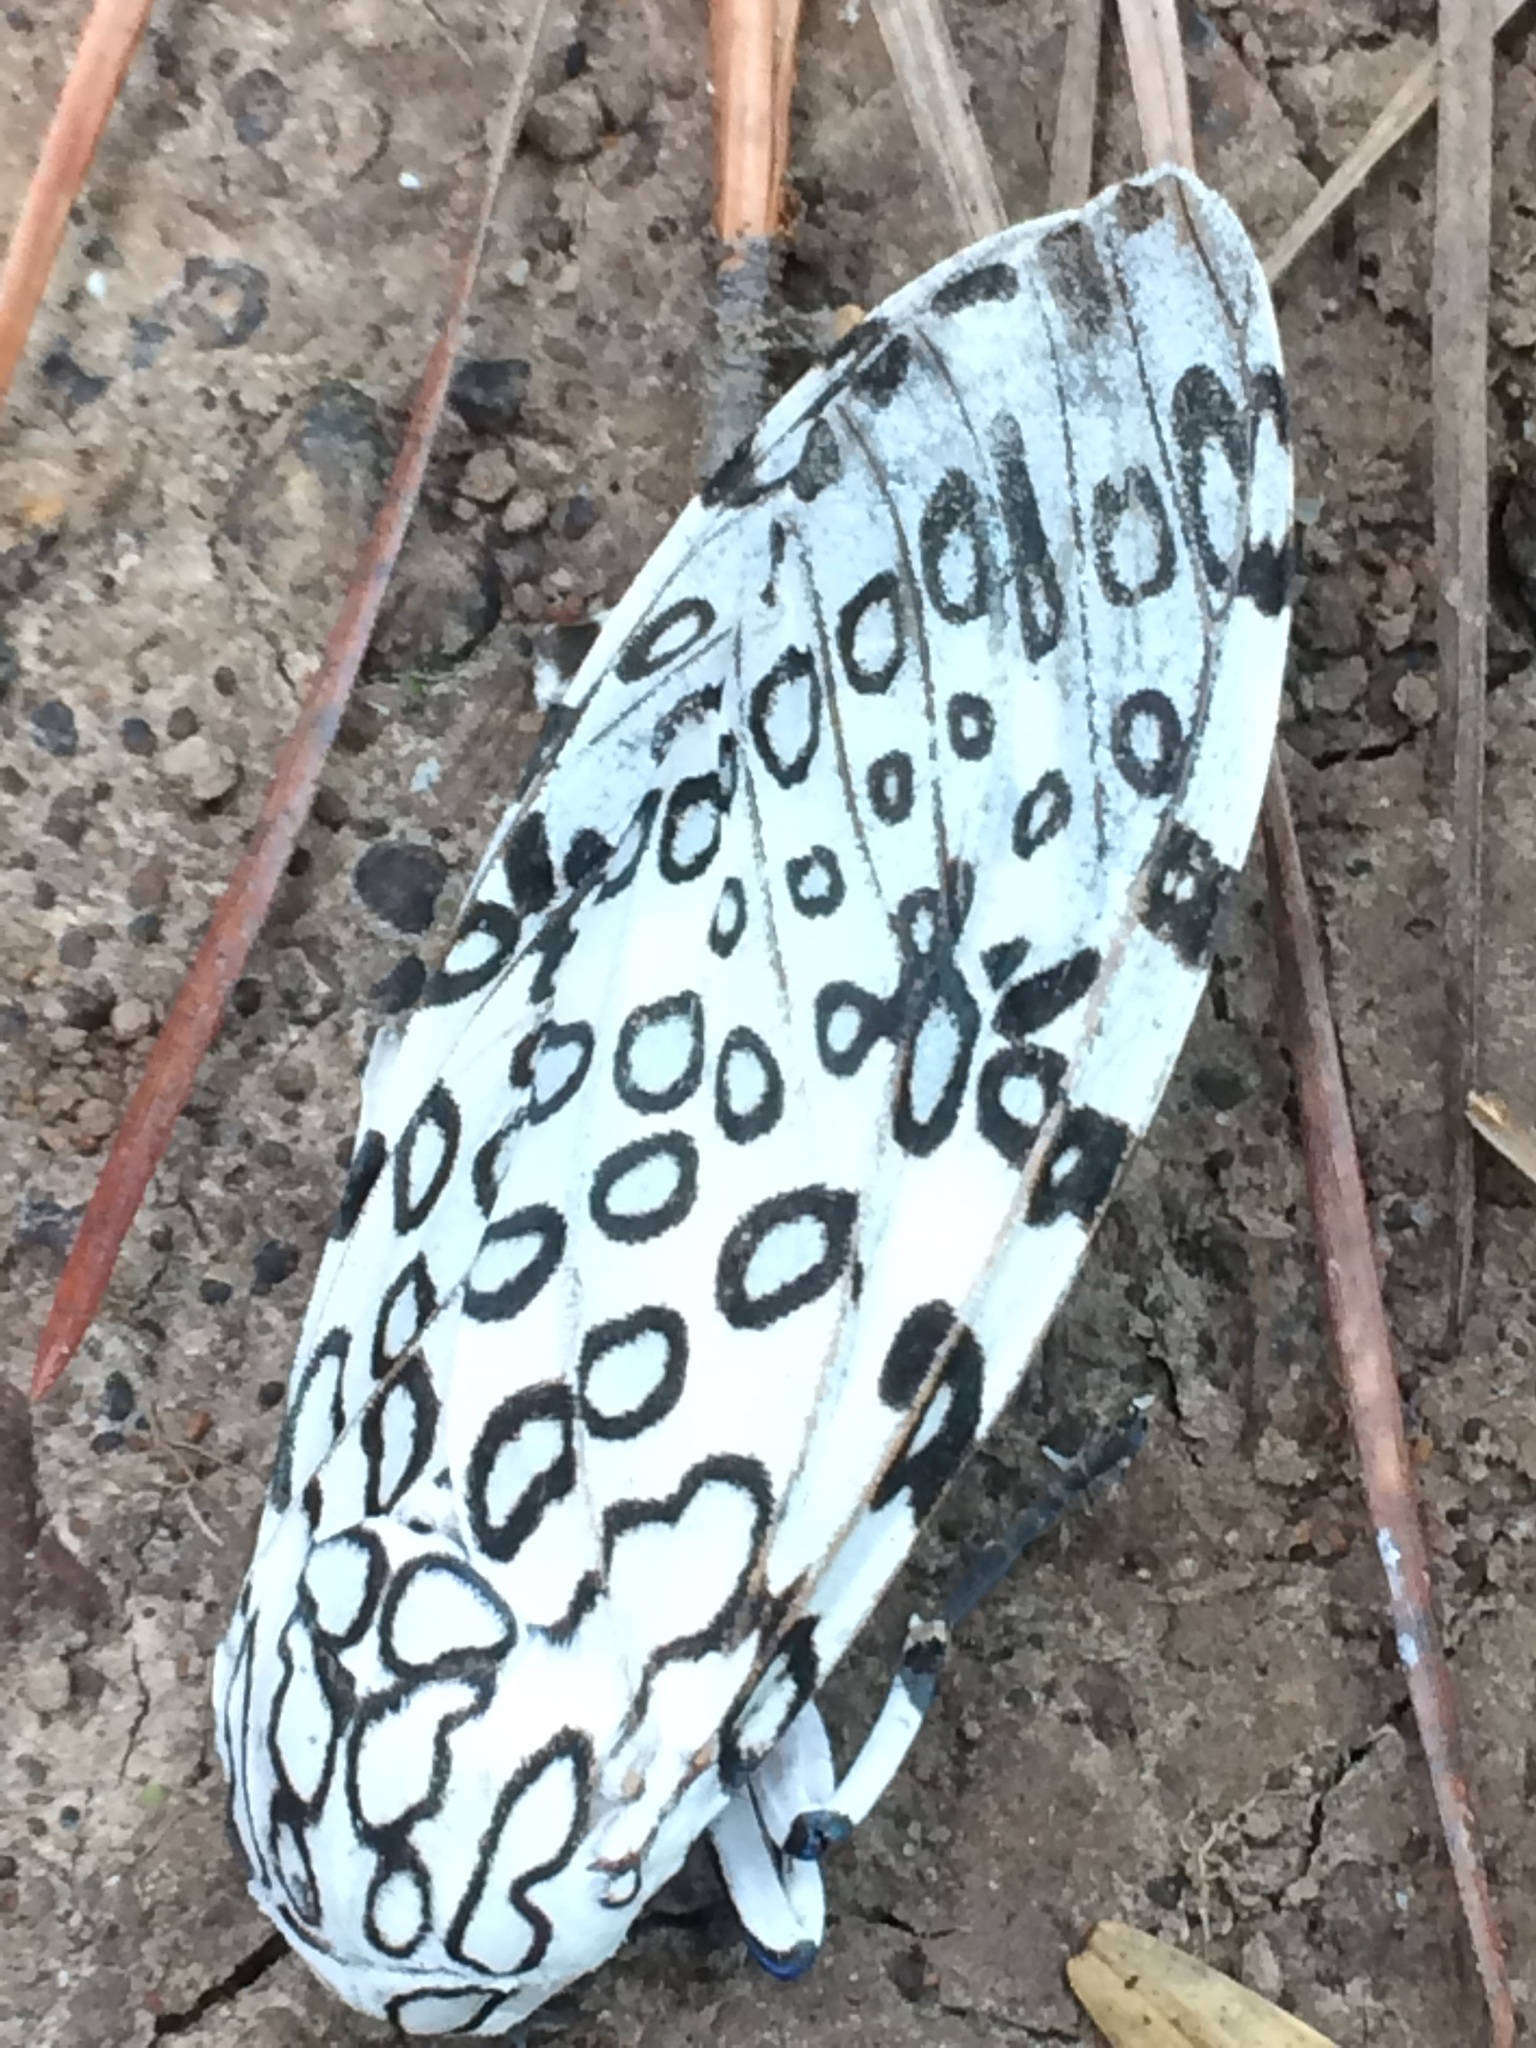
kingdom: Animalia
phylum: Arthropoda
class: Insecta
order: Lepidoptera
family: Erebidae
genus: Hypercompe
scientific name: Hypercompe scribonia
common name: Giant leopard moth
